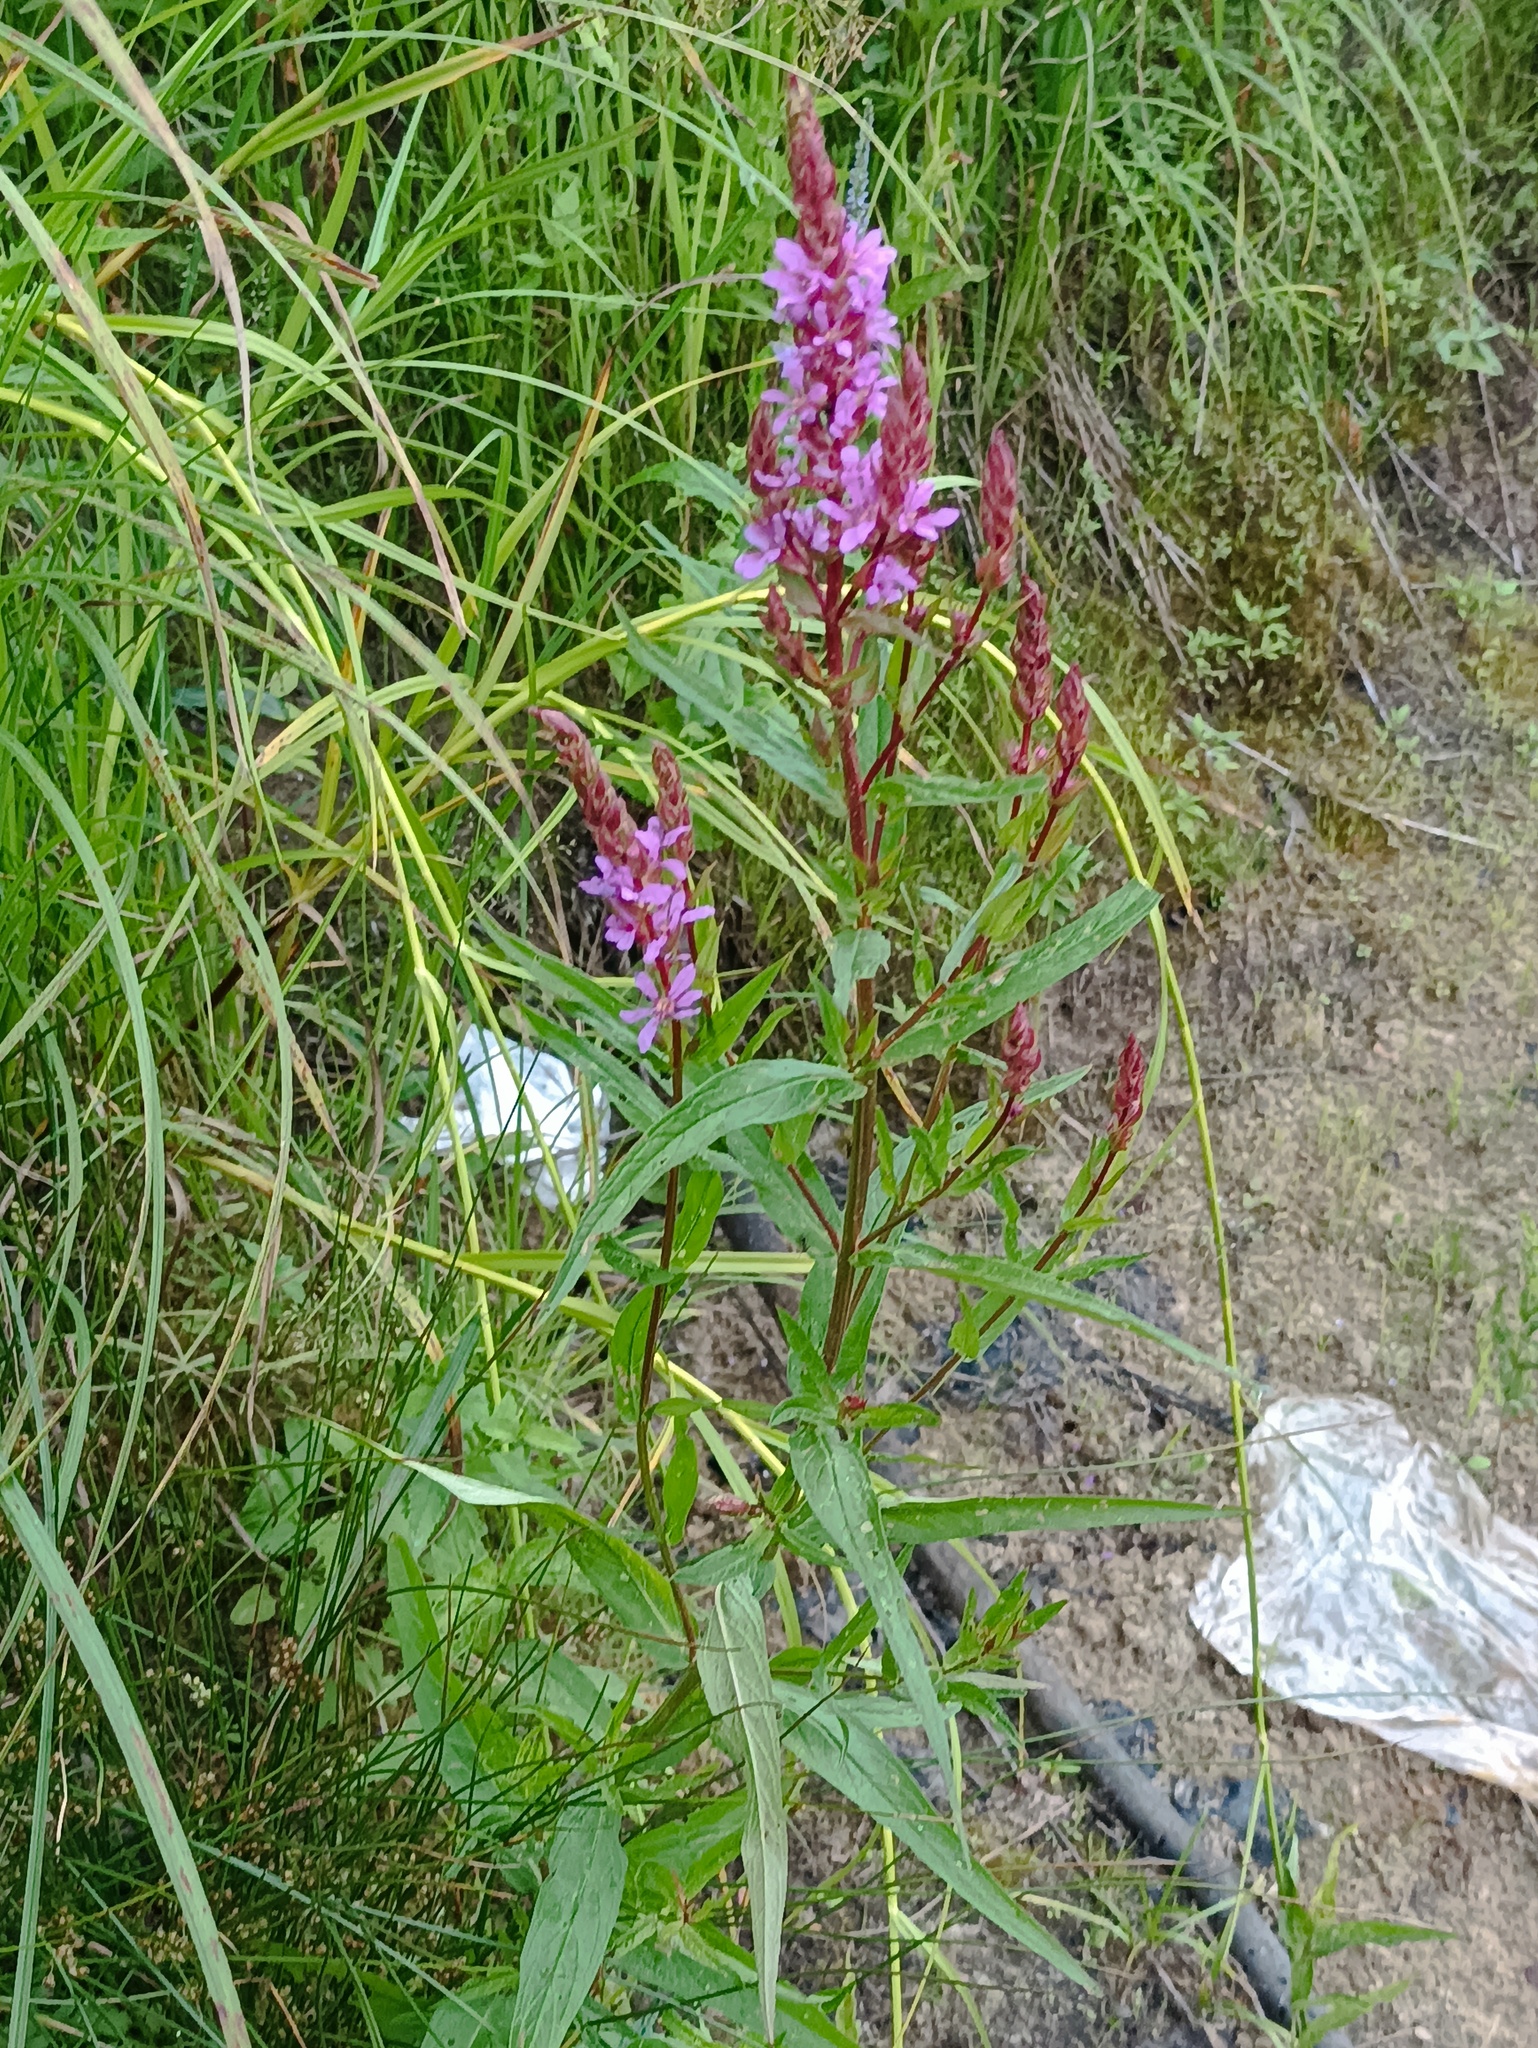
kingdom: Plantae
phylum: Tracheophyta
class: Magnoliopsida
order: Myrtales
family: Lythraceae
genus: Lythrum
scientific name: Lythrum salicaria
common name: Purple loosestrife
